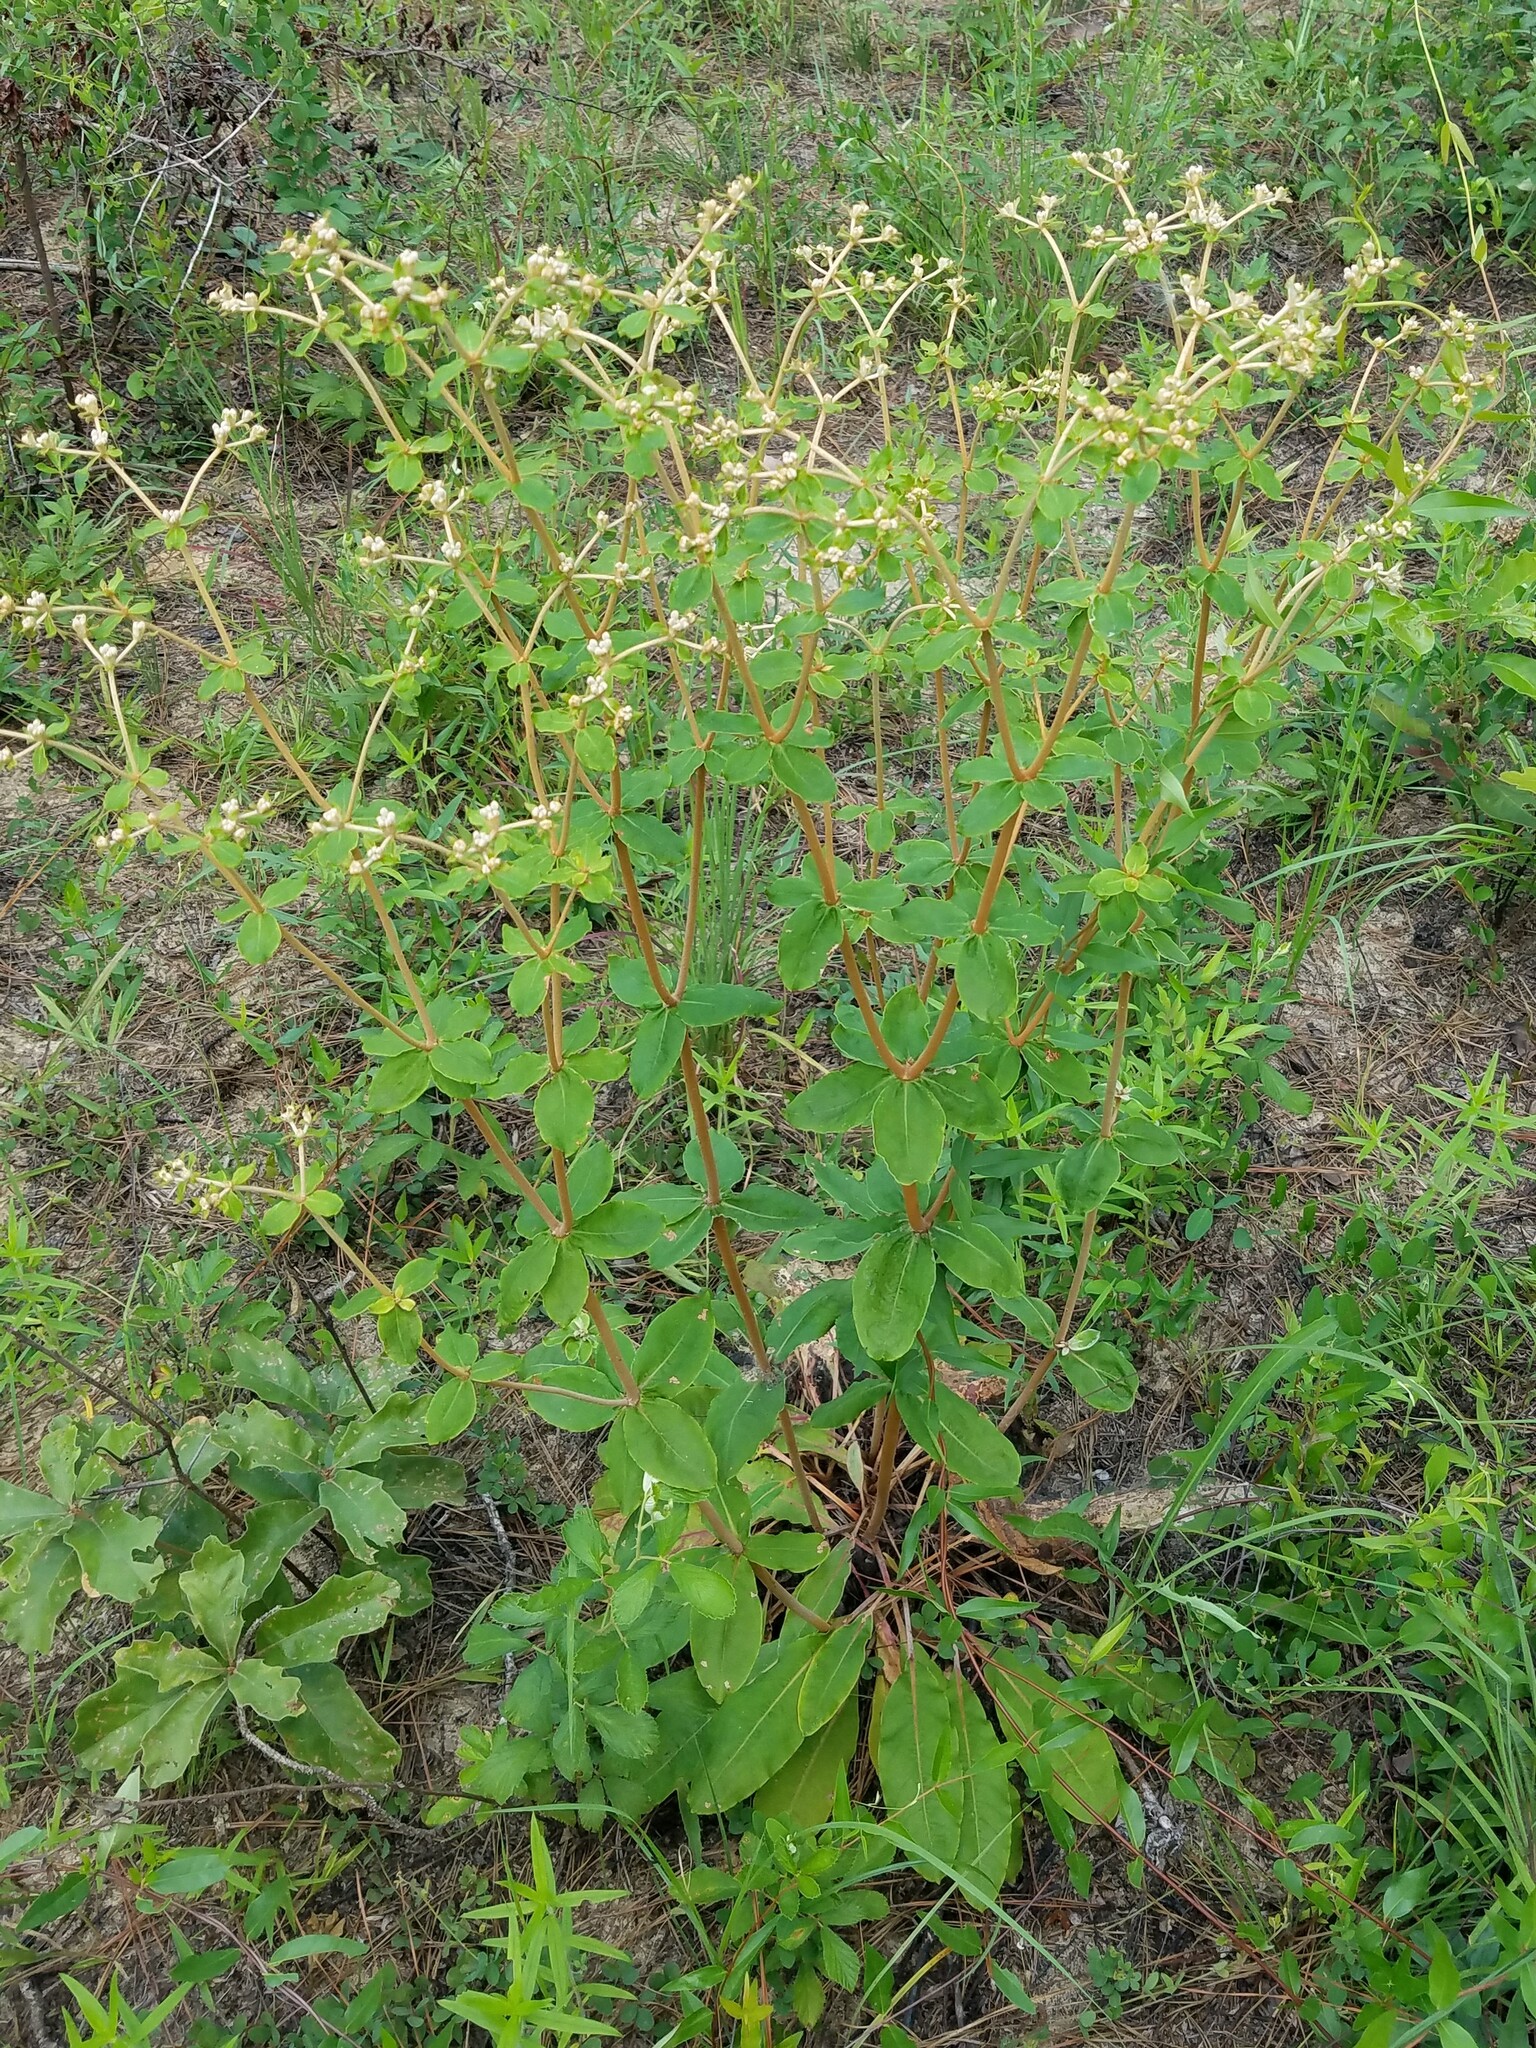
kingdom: Plantae
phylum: Tracheophyta
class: Magnoliopsida
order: Caryophyllales
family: Polygonaceae
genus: Eriogonum
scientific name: Eriogonum tomentosum
